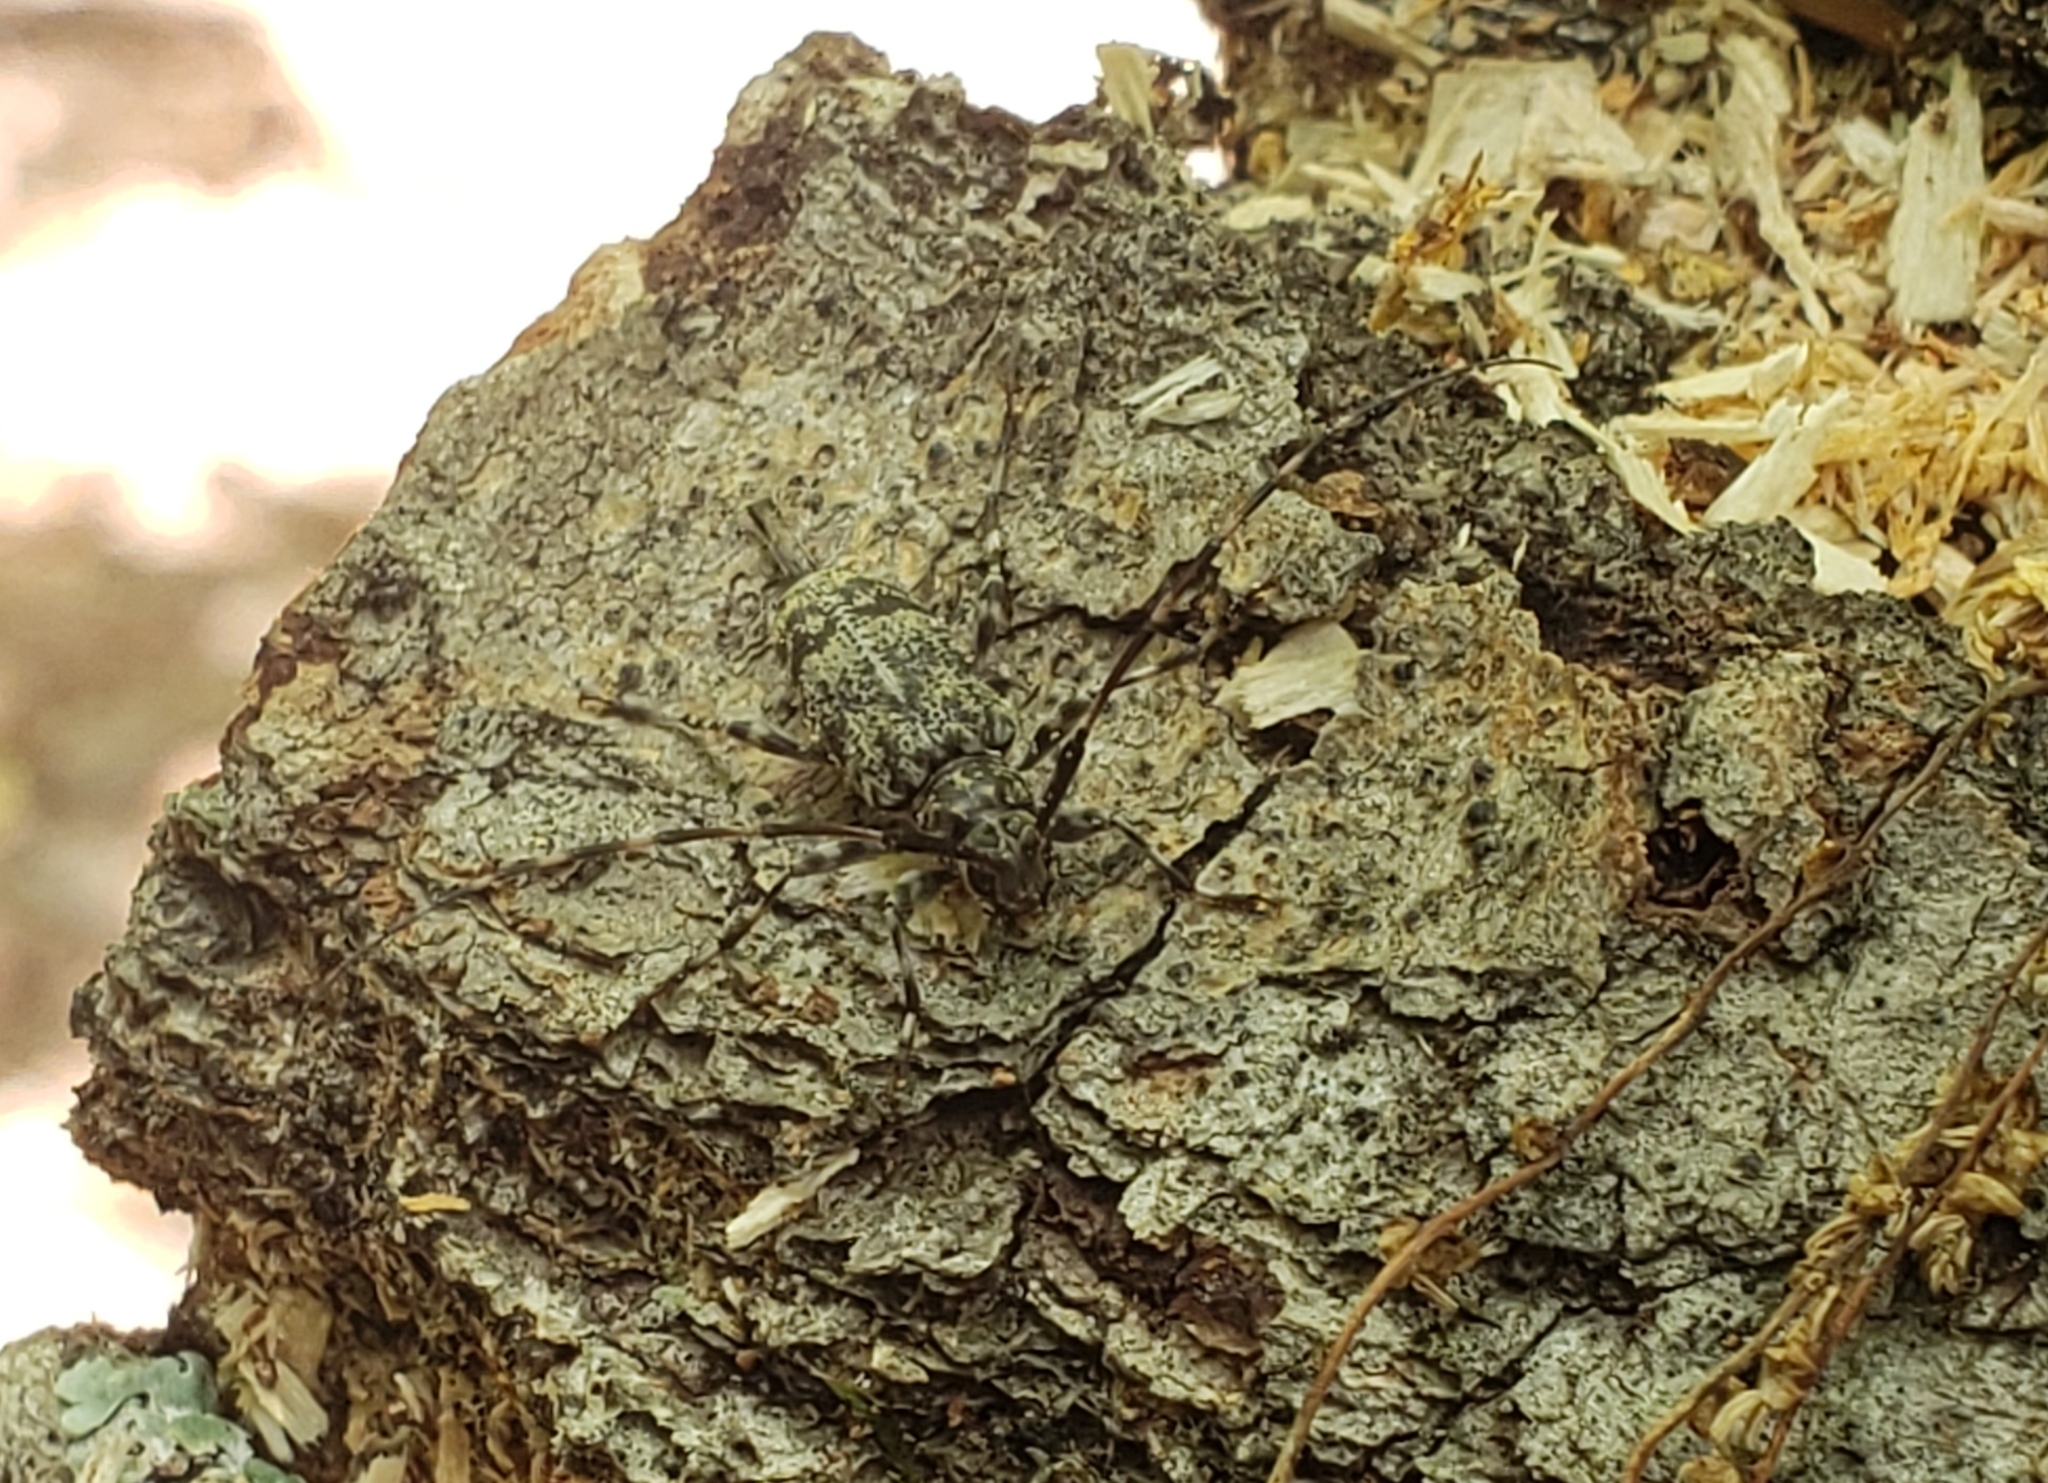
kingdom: Animalia
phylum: Arthropoda
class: Insecta
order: Coleoptera
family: Cerambycidae
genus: Graphisurus
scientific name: Graphisurus fasciatus
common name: Banded graphisurus
